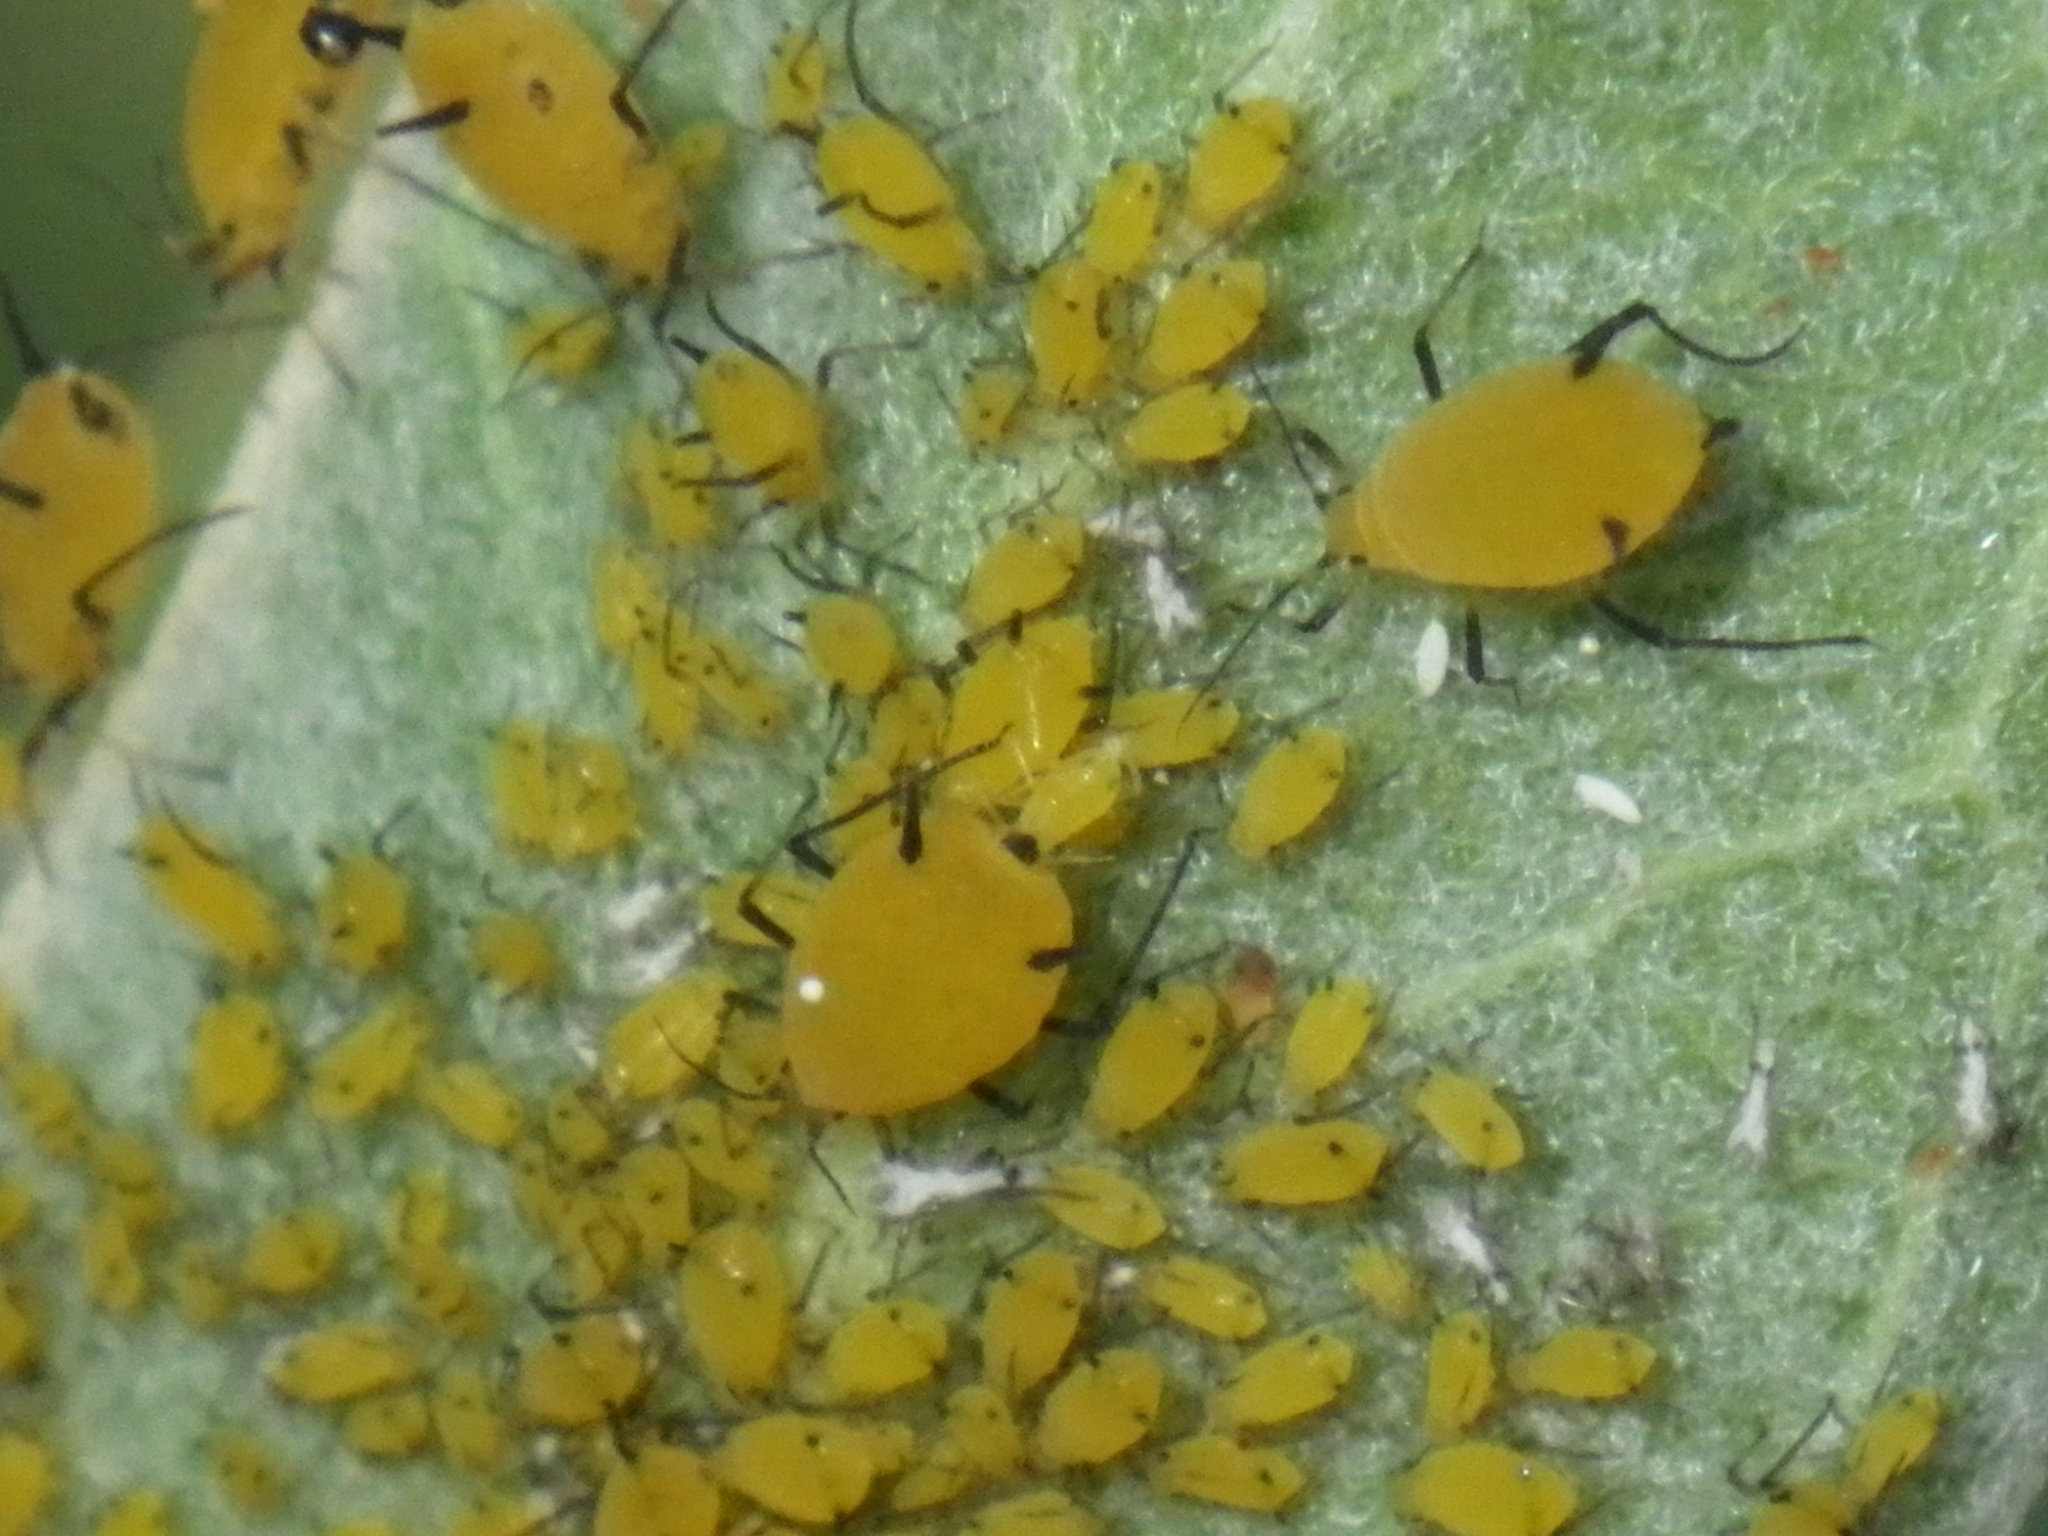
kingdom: Animalia
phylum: Arthropoda
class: Insecta
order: Hemiptera
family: Aphididae
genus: Aphis
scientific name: Aphis nerii
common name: Oleander aphid
